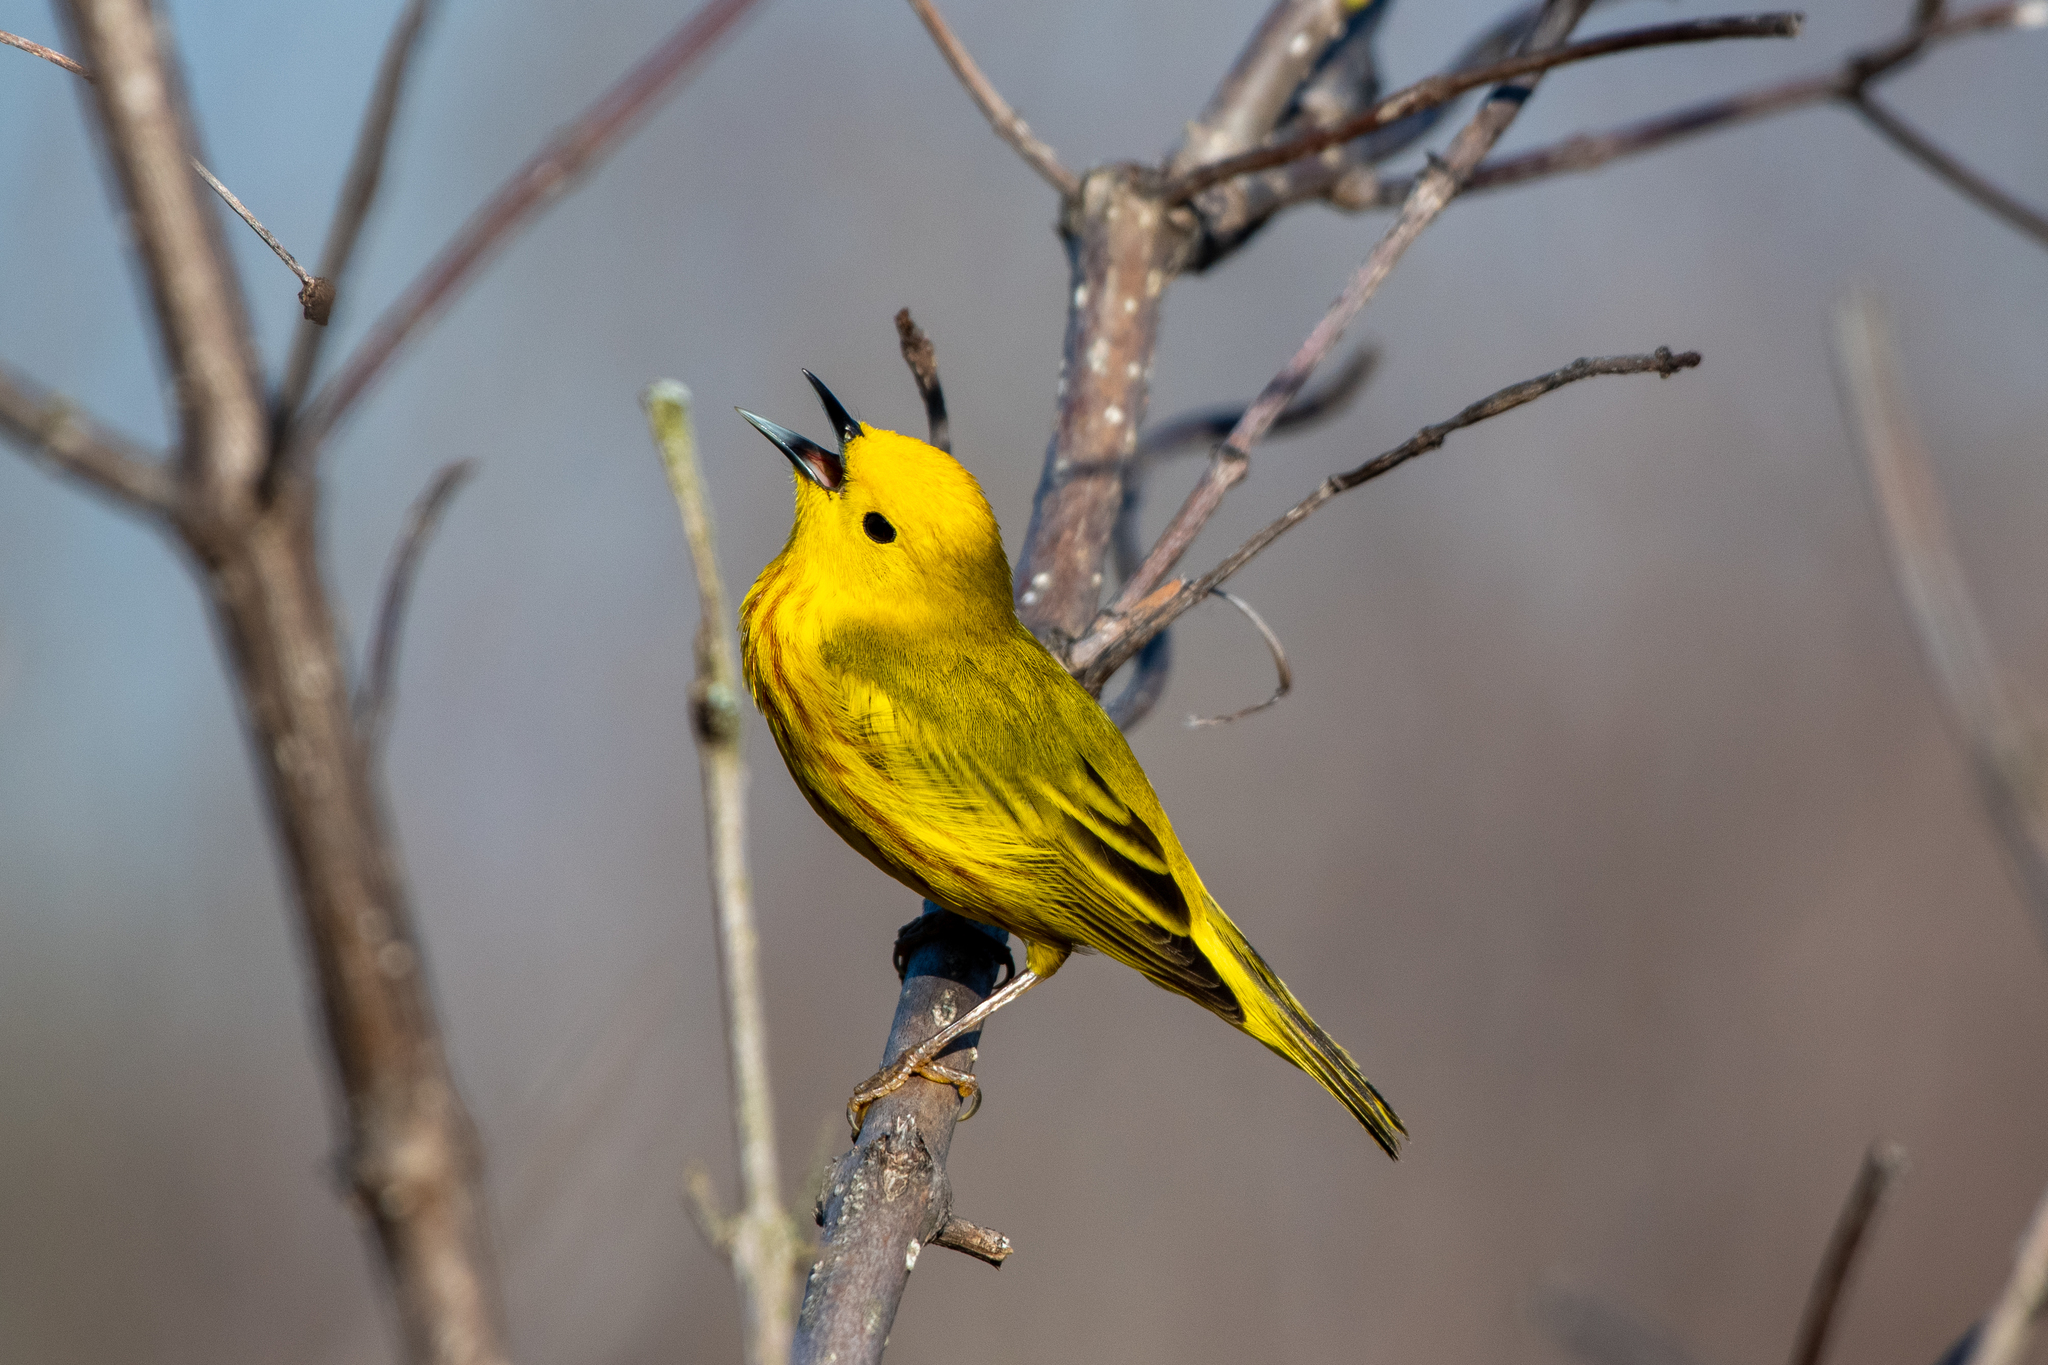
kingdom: Animalia
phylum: Chordata
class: Aves
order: Passeriformes
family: Parulidae
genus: Setophaga
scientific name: Setophaga petechia
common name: Yellow warbler
